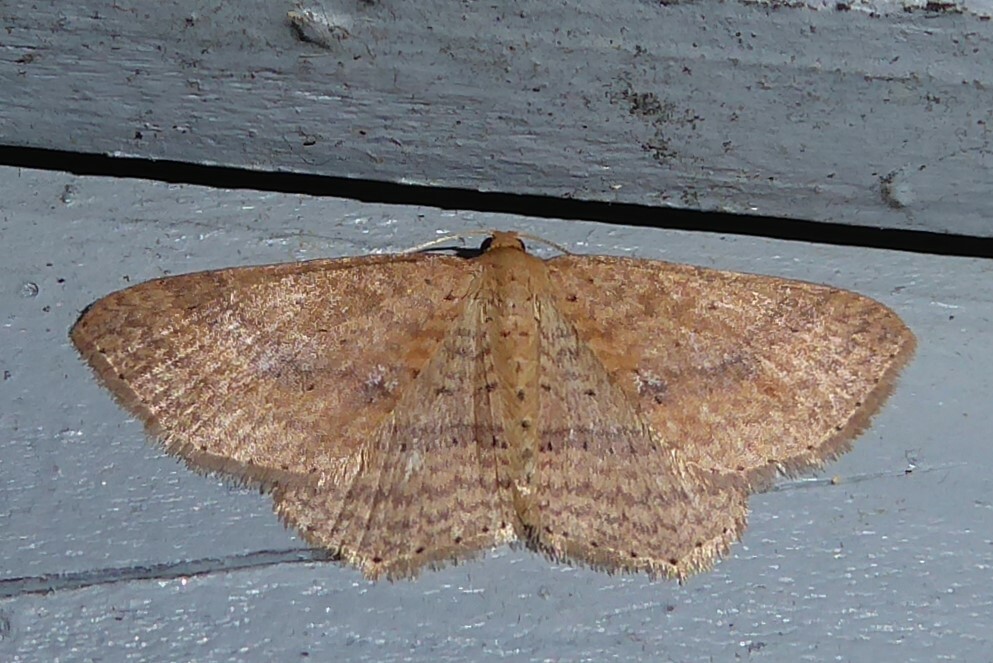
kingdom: Animalia
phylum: Arthropoda
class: Insecta
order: Lepidoptera
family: Geometridae
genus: Epicyme
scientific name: Epicyme rubropunctaria
